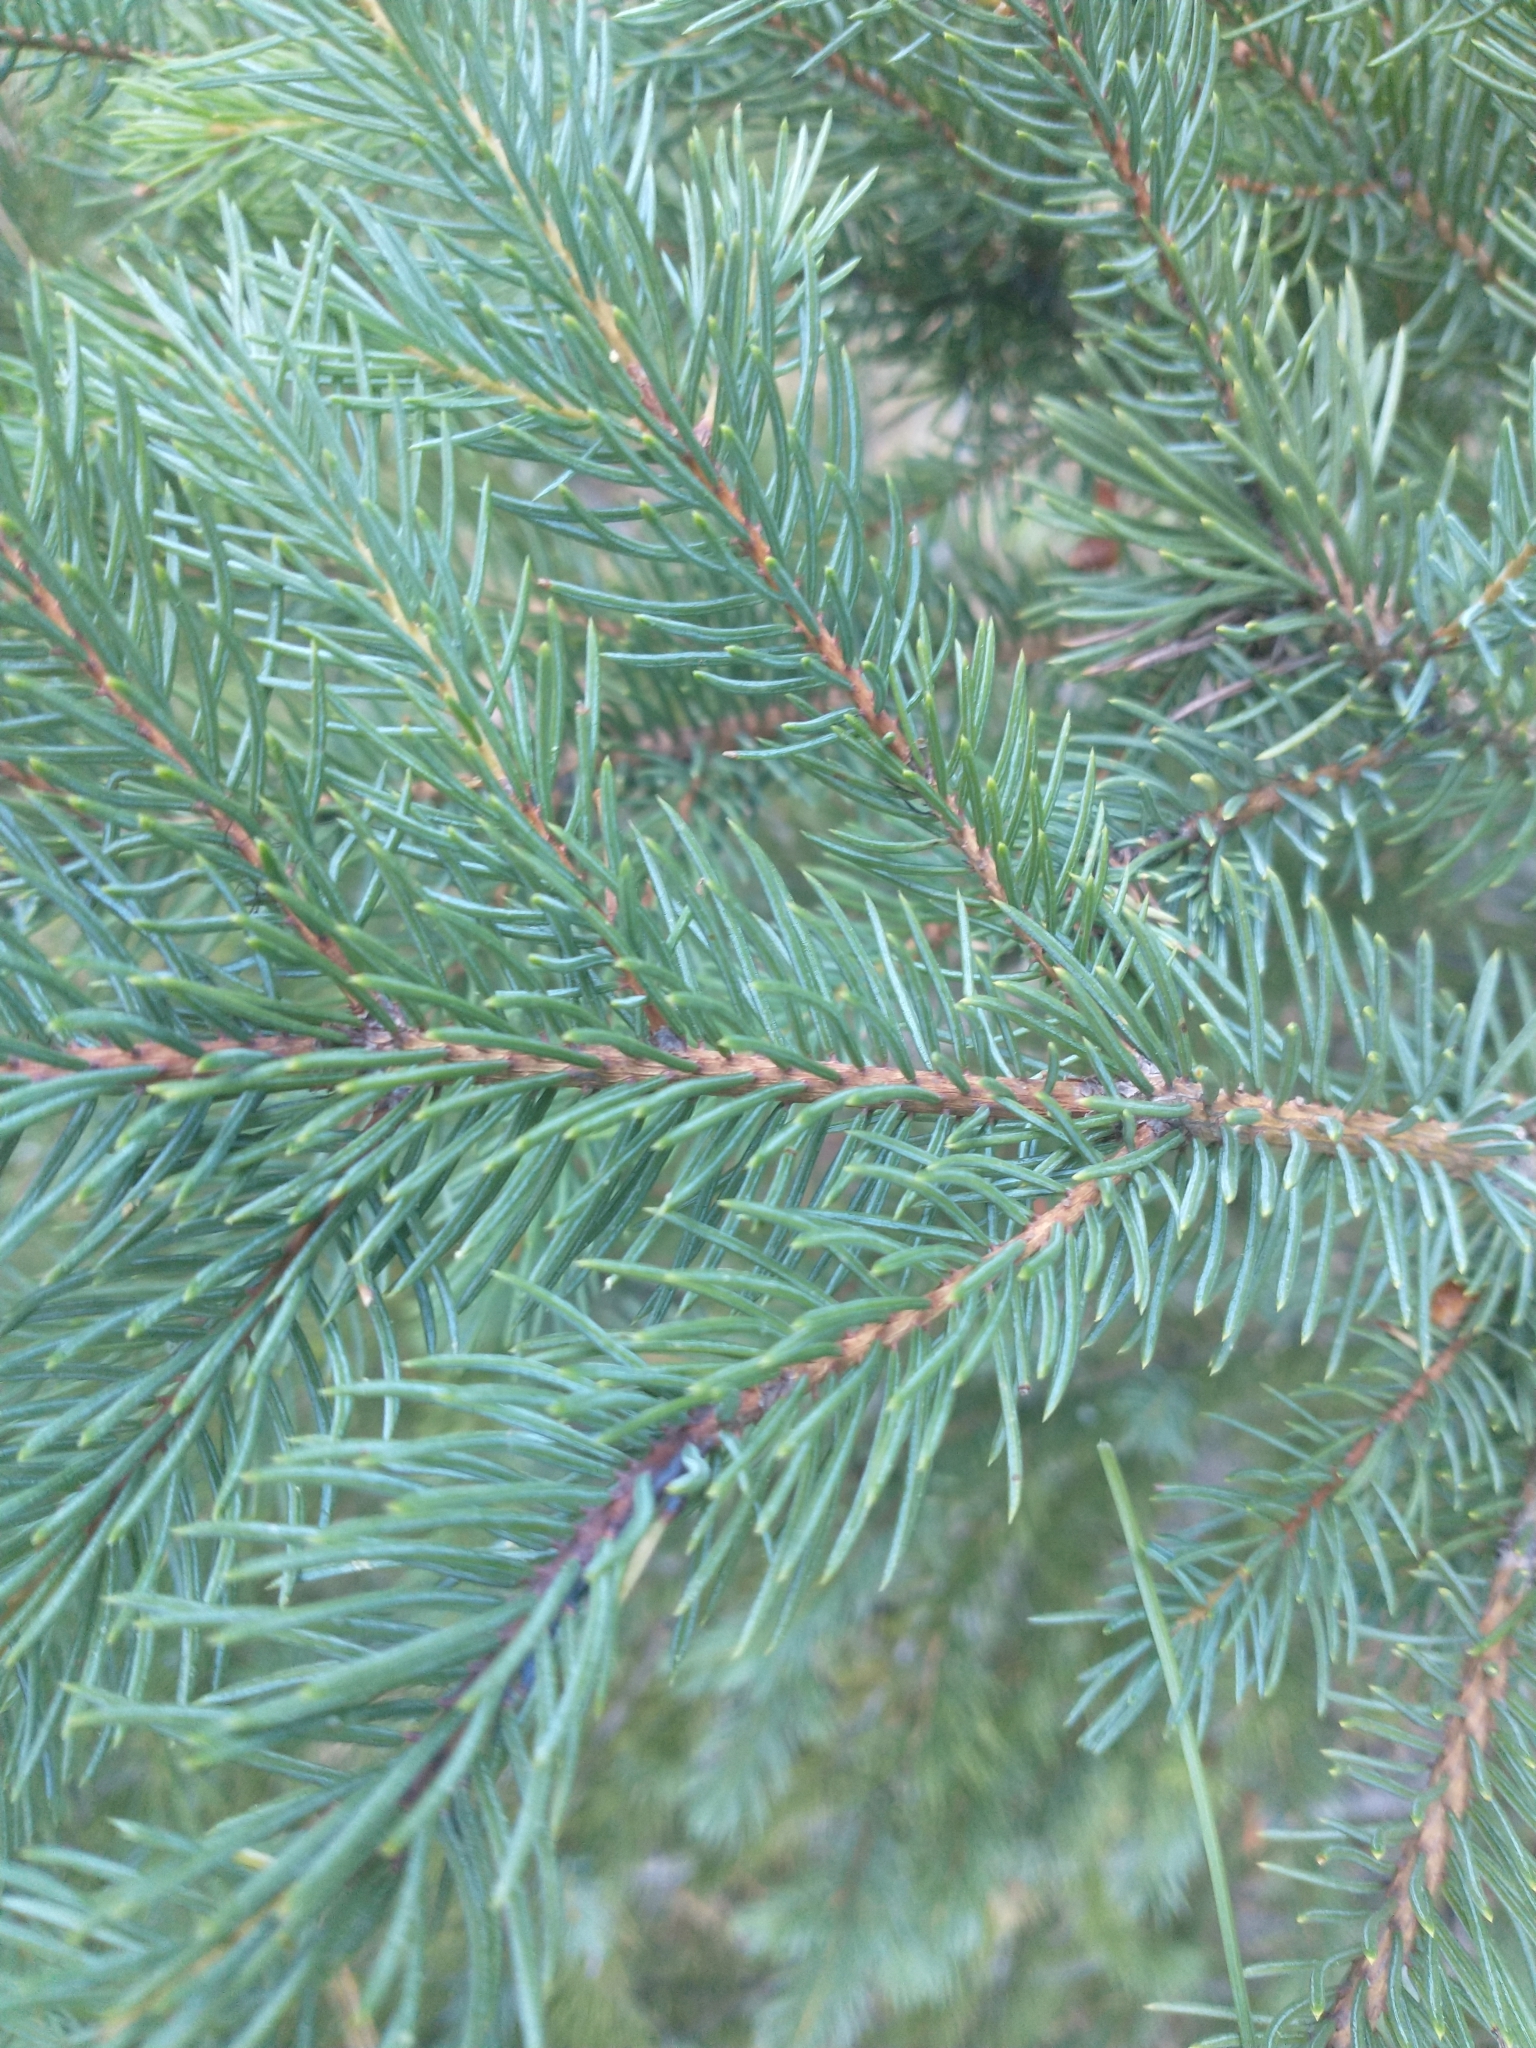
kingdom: Plantae
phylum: Tracheophyta
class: Pinopsida
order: Pinales
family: Pinaceae
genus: Picea
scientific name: Picea engelmannii
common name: Engelmann spruce
